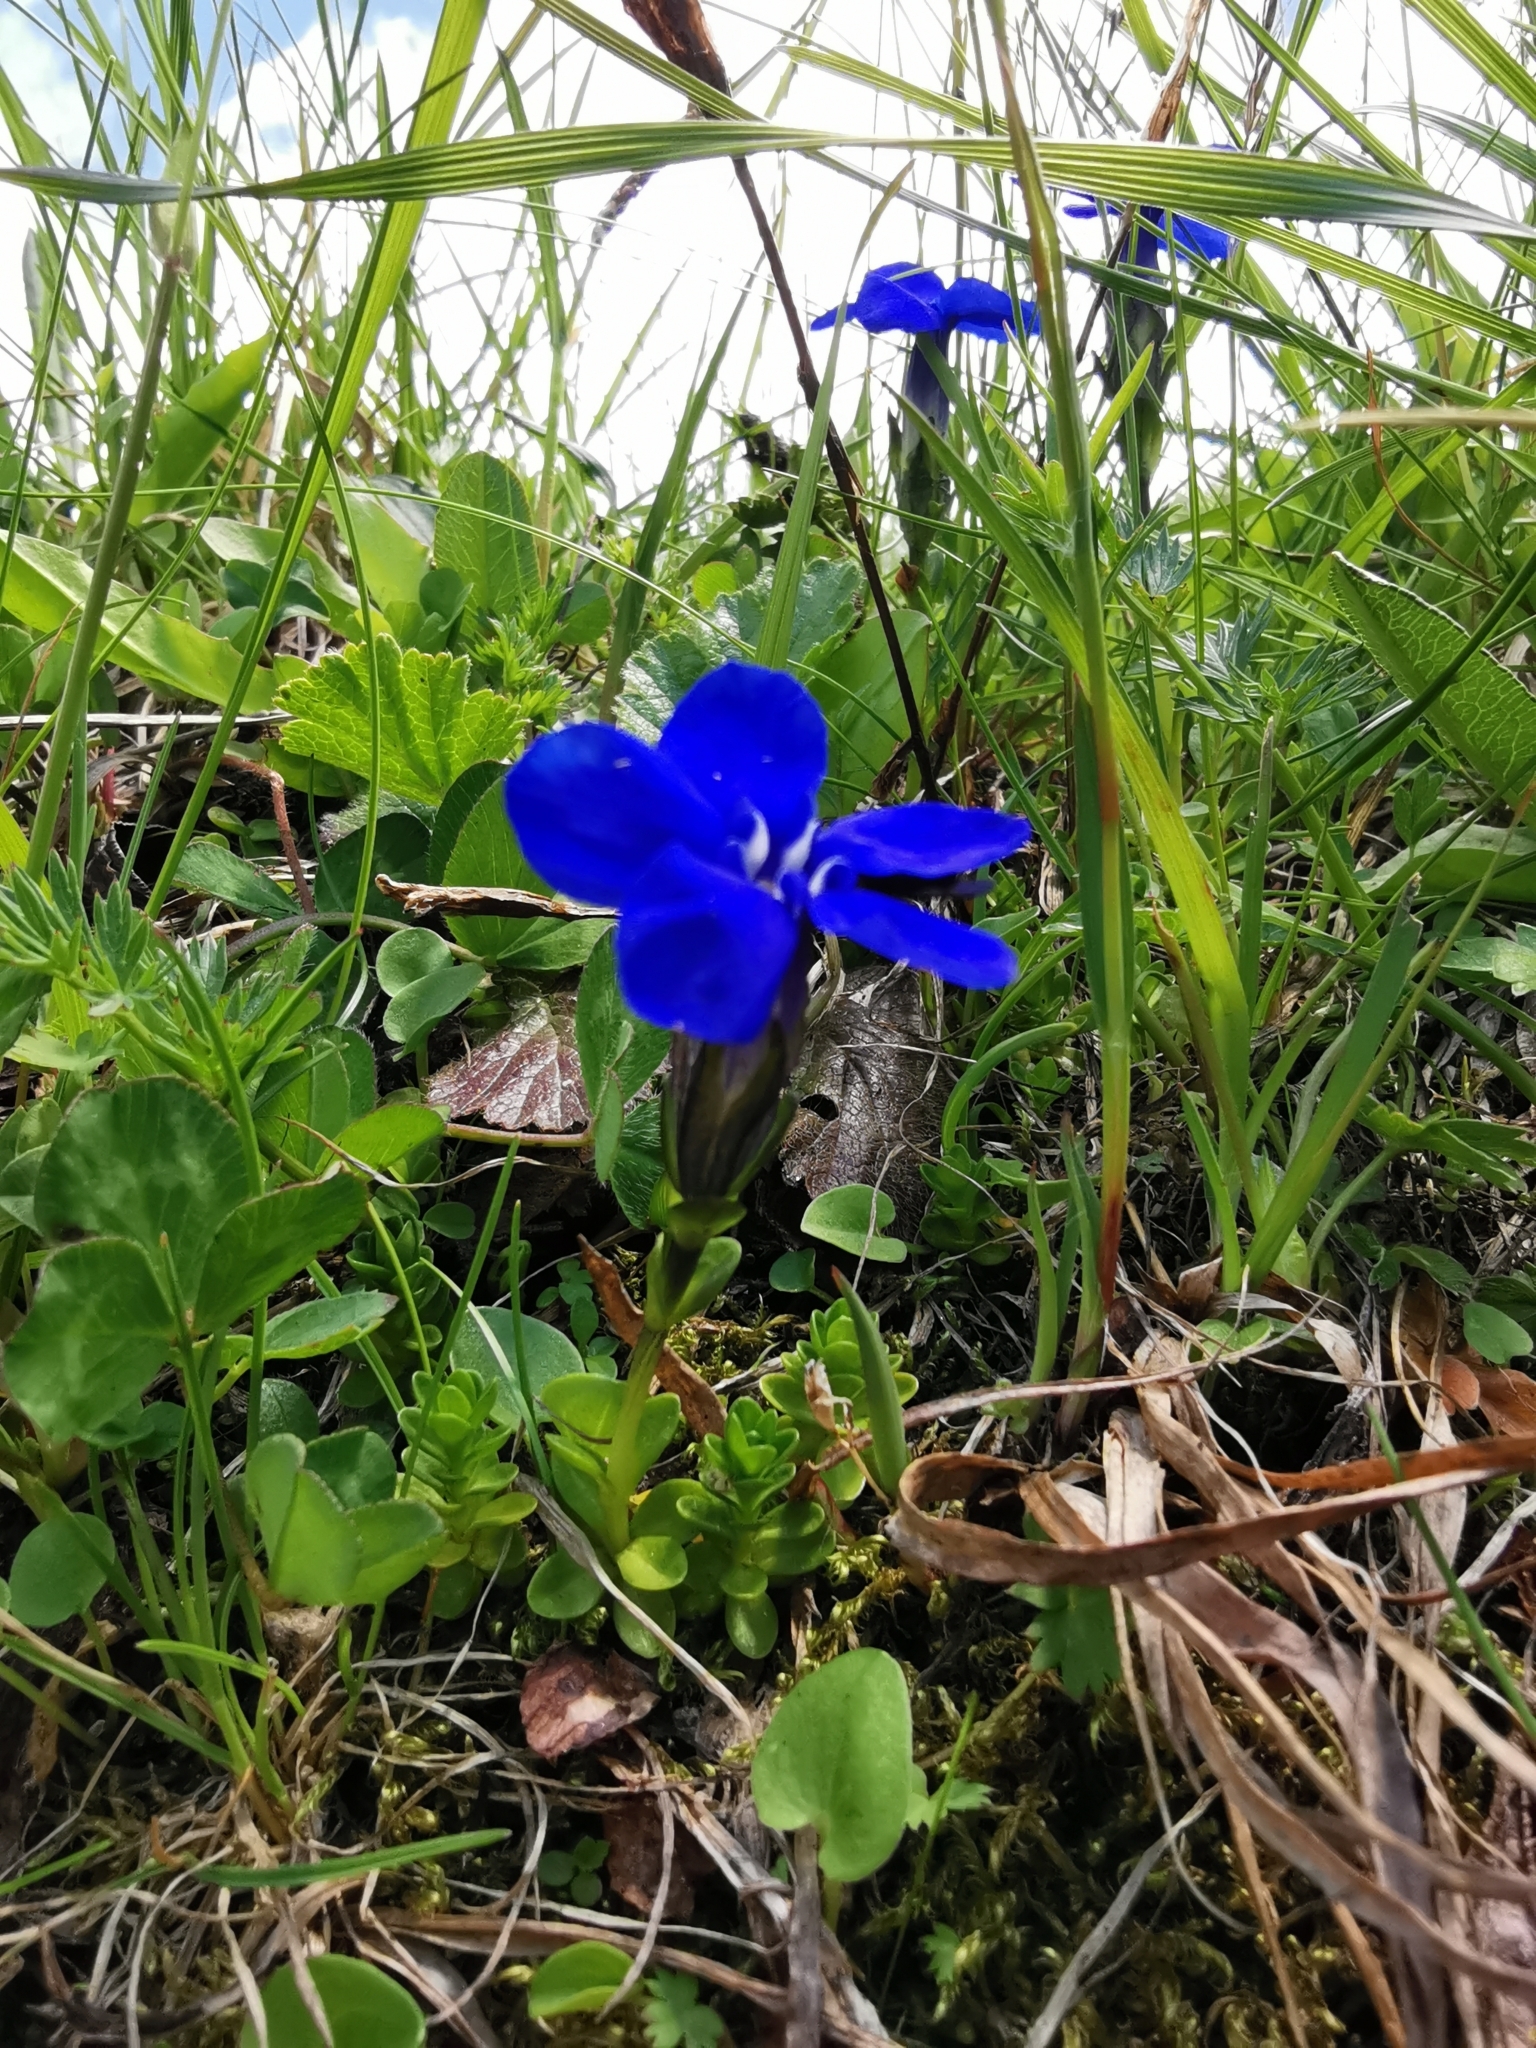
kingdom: Plantae
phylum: Tracheophyta
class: Magnoliopsida
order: Gentianales
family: Gentianaceae
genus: Gentiana
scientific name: Gentiana bavarica
